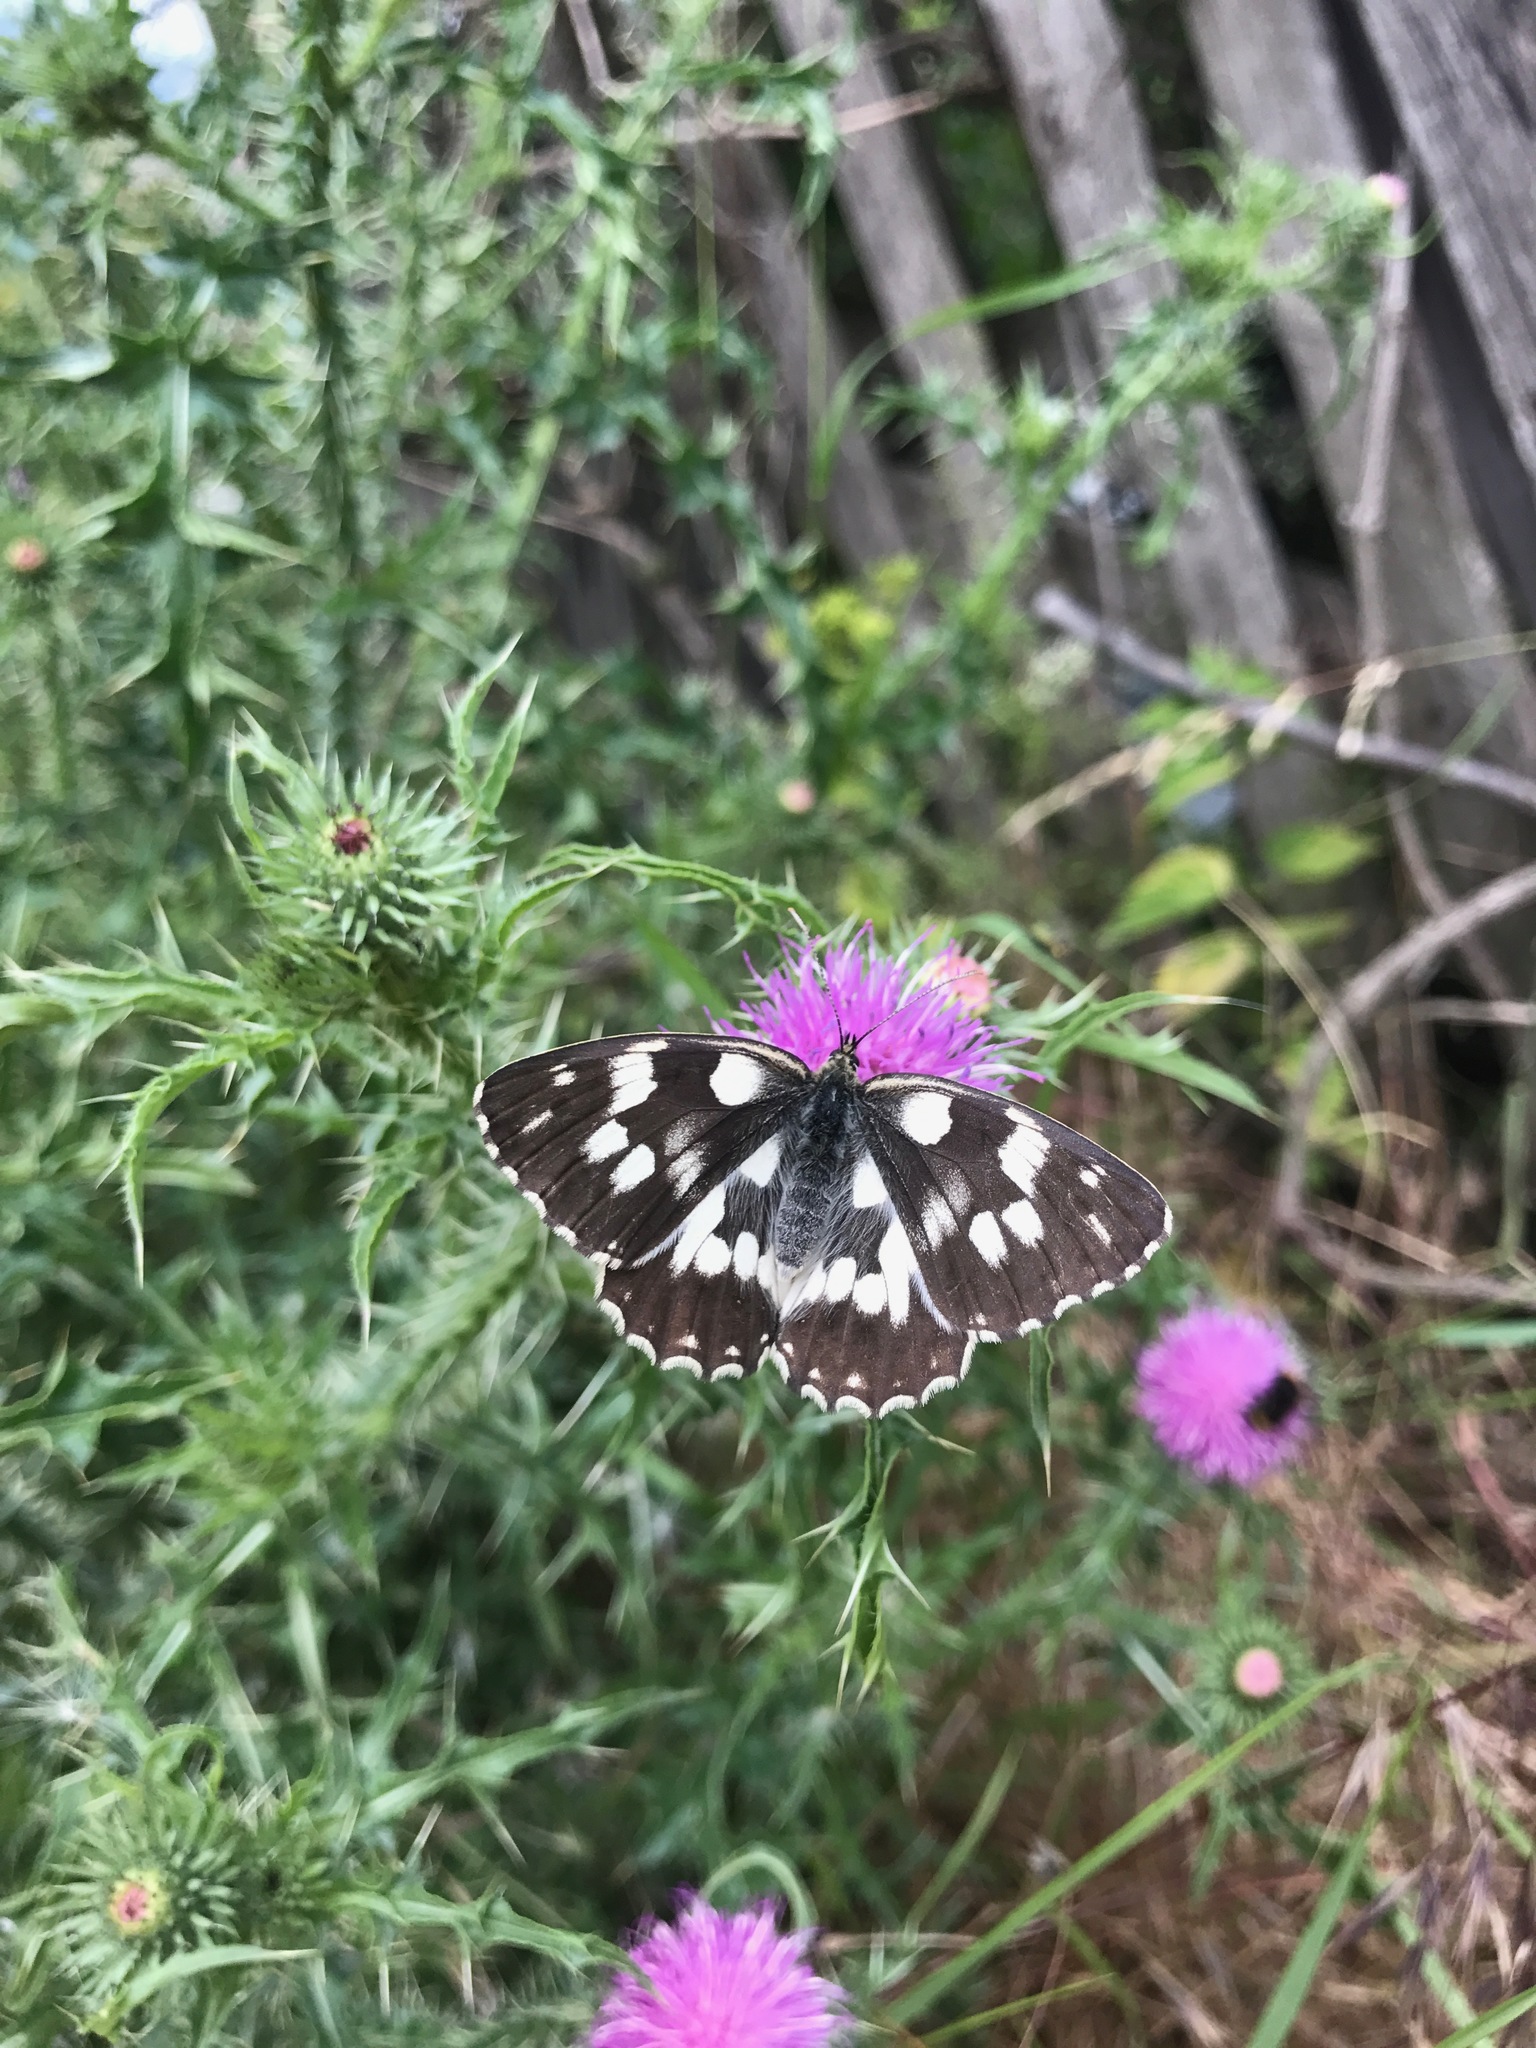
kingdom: Animalia
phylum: Arthropoda
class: Insecta
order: Lepidoptera
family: Nymphalidae
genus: Melanargia
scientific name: Melanargia galathea
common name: Marbled white
